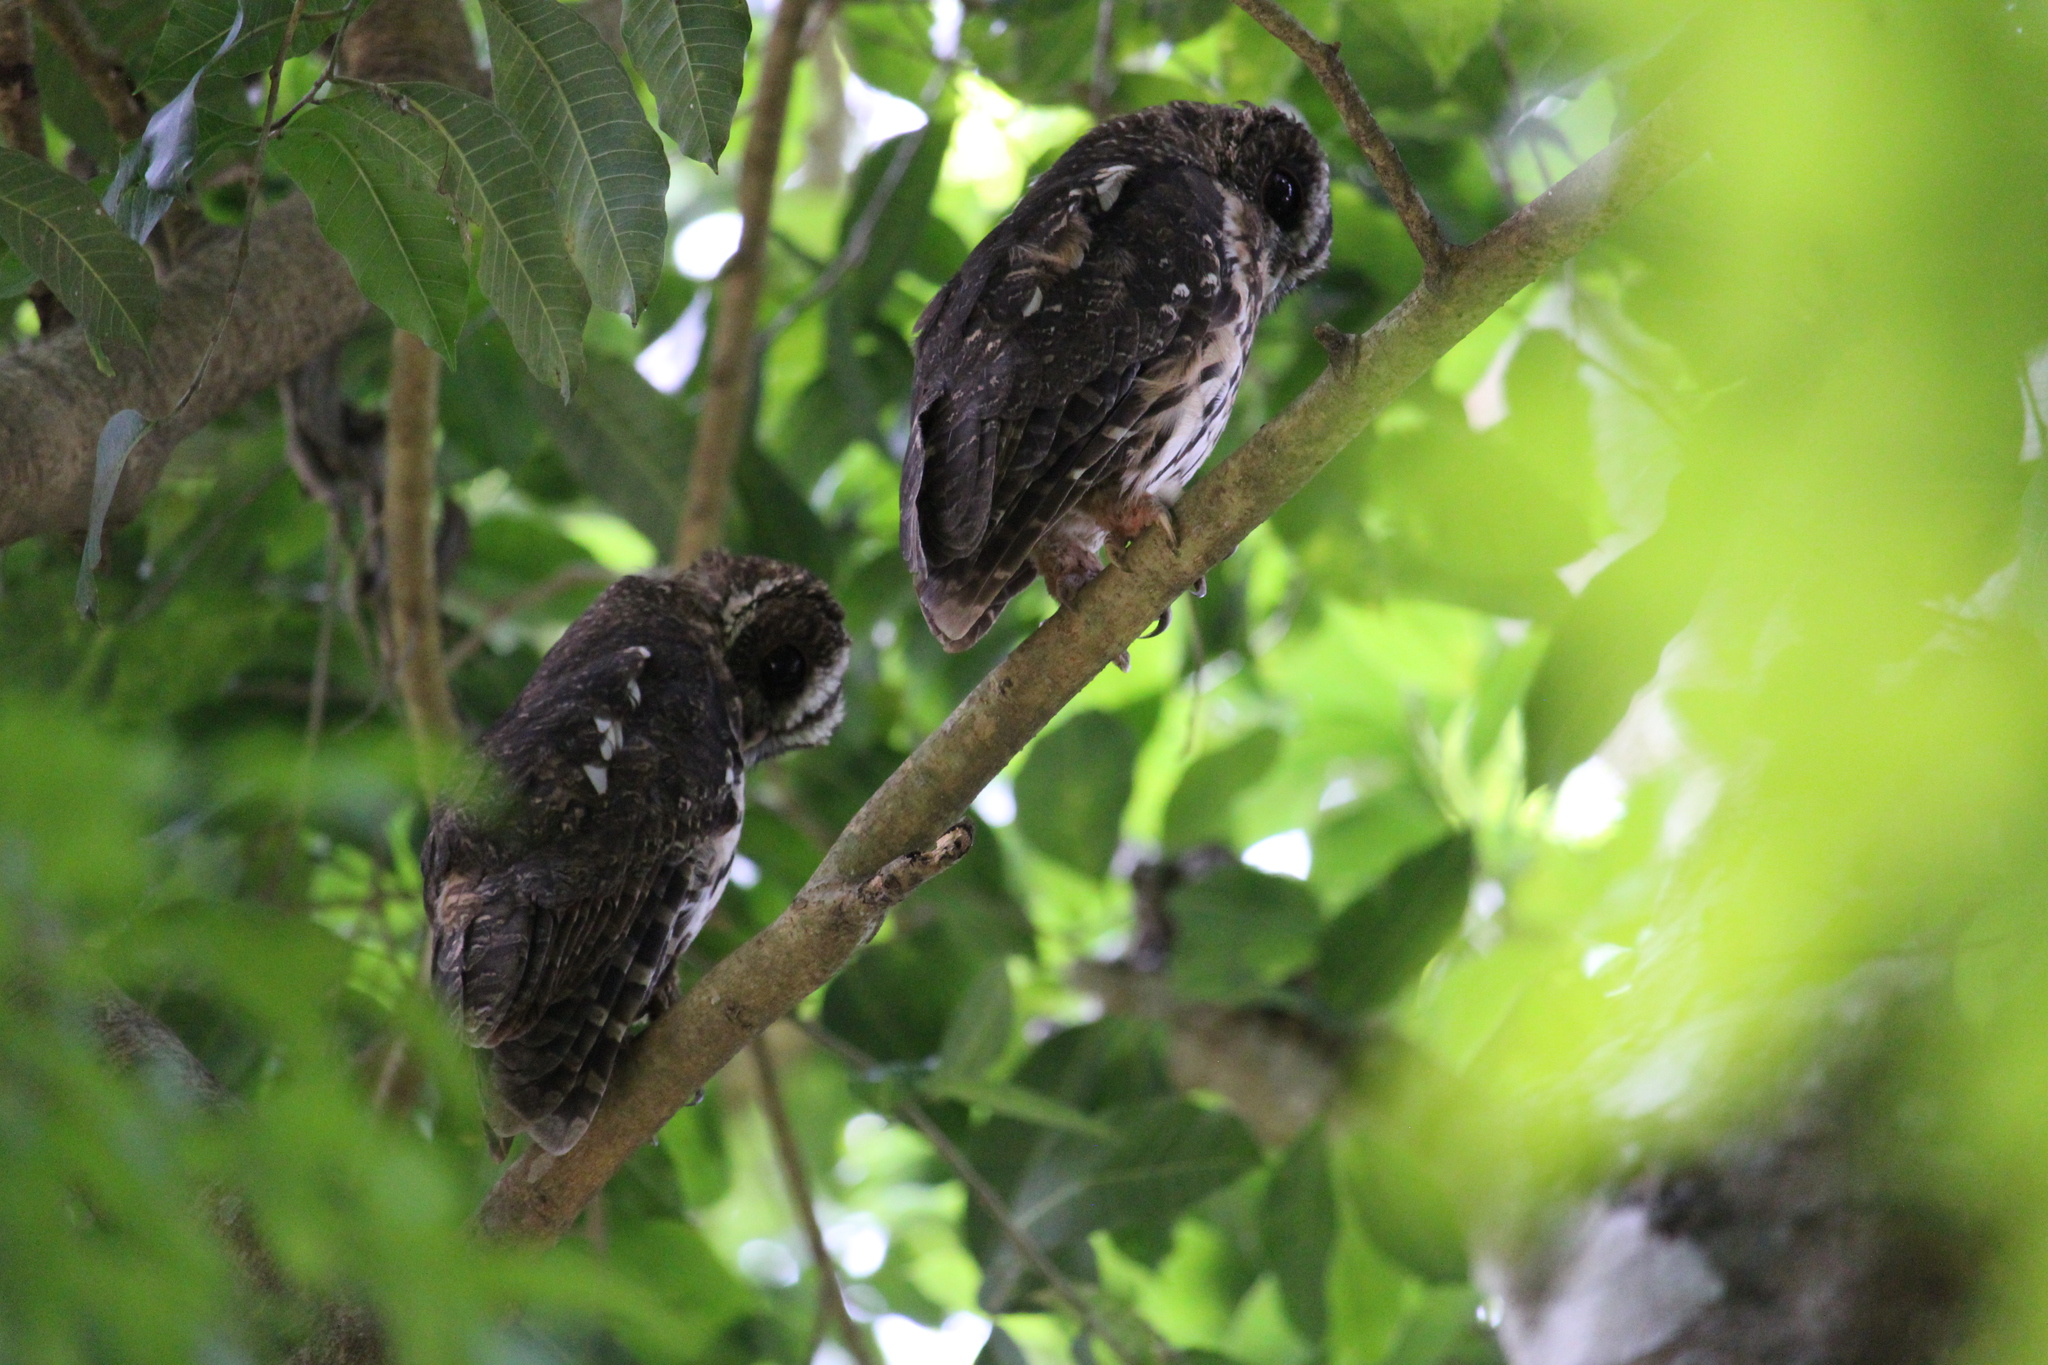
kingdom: Animalia
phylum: Chordata
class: Aves
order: Strigiformes
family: Strigidae
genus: Strix
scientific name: Strix virgata
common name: Mottled owl
